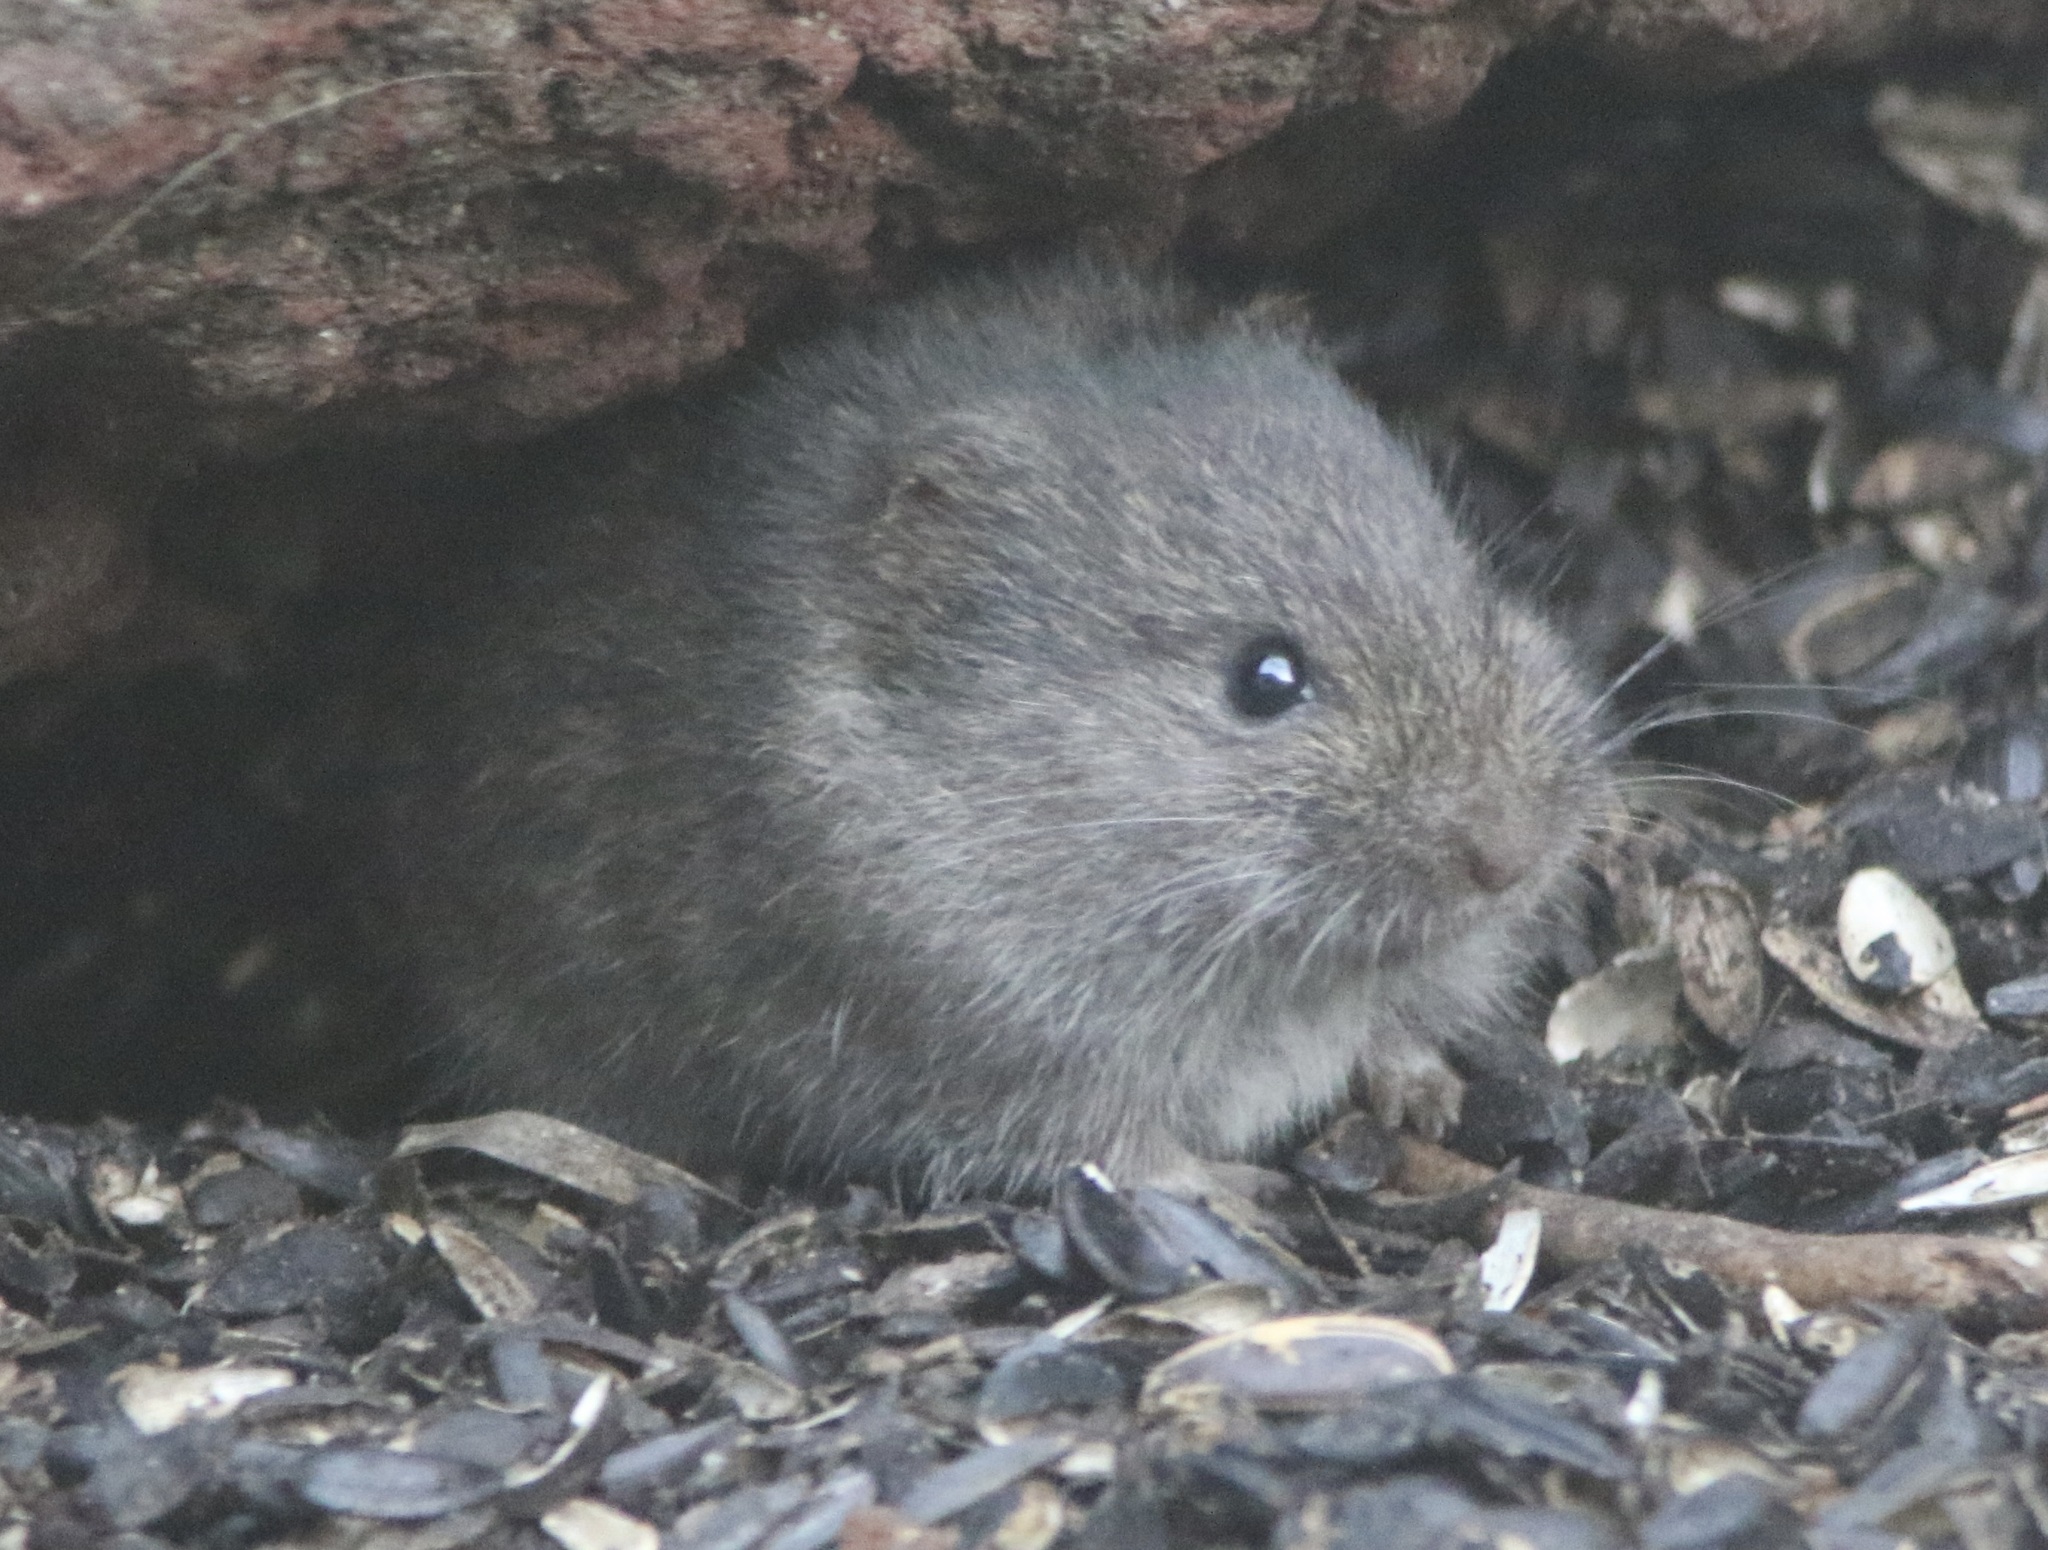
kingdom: Animalia
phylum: Chordata
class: Mammalia
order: Rodentia
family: Cricetidae
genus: Microtus
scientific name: Microtus californicus
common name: California vole
